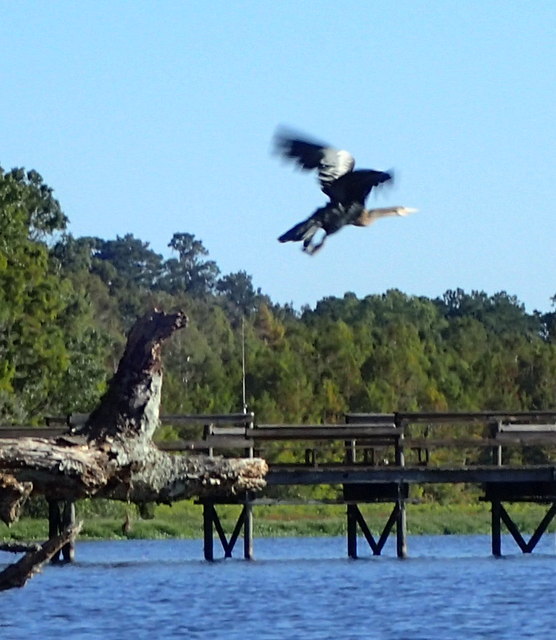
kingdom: Animalia
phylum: Chordata
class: Aves
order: Suliformes
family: Anhingidae
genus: Anhinga
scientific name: Anhinga anhinga
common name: Anhinga
